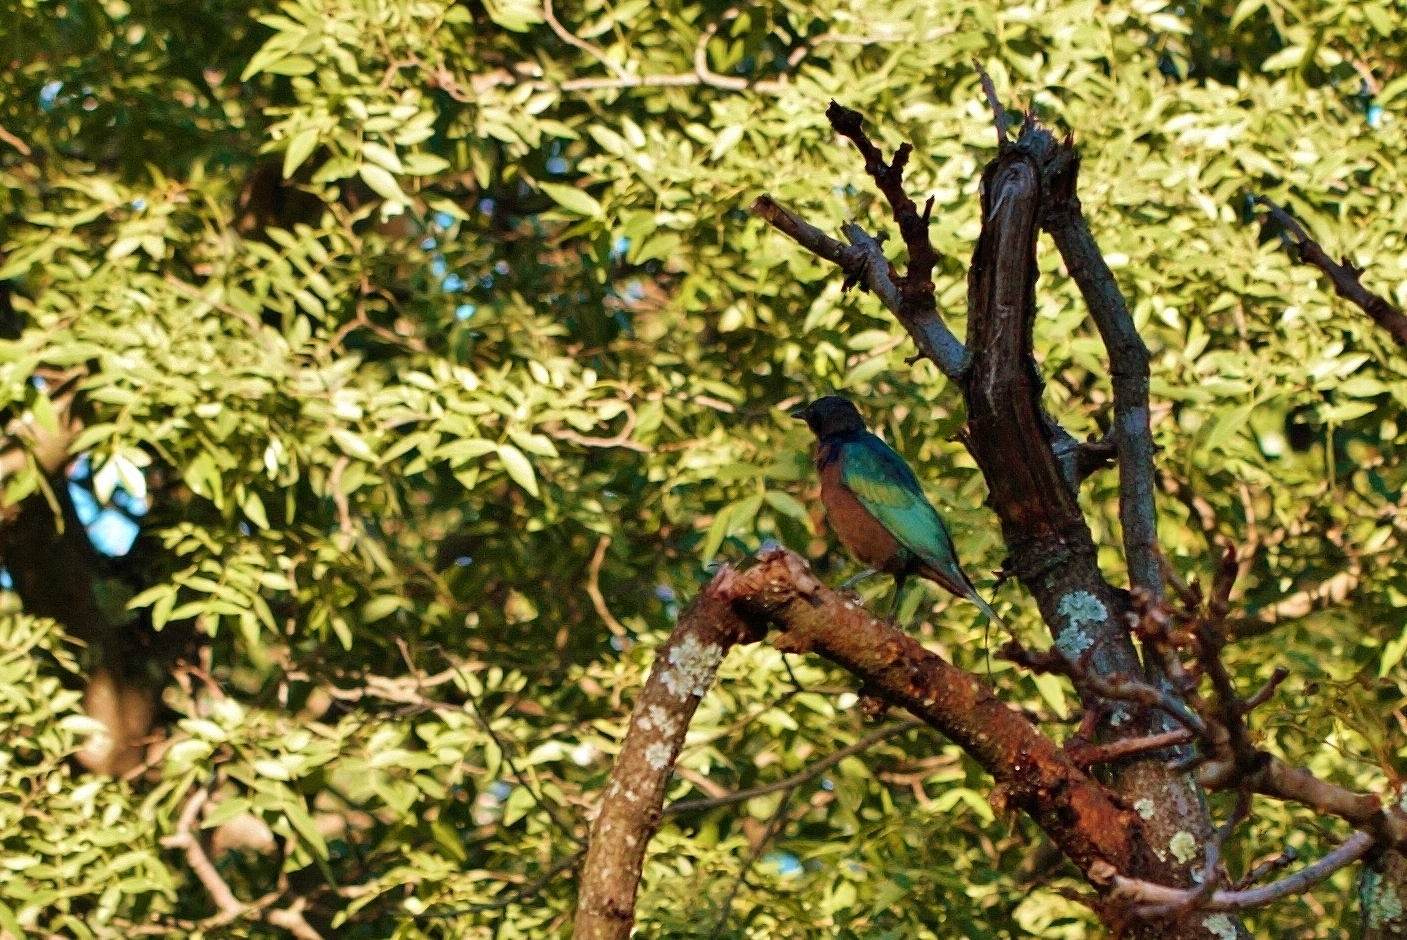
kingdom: Animalia
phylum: Chordata
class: Aves
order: Passeriformes
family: Sturnidae
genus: Lamprotornis
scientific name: Lamprotornis chloropterus
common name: Lesser blue-eared starling
